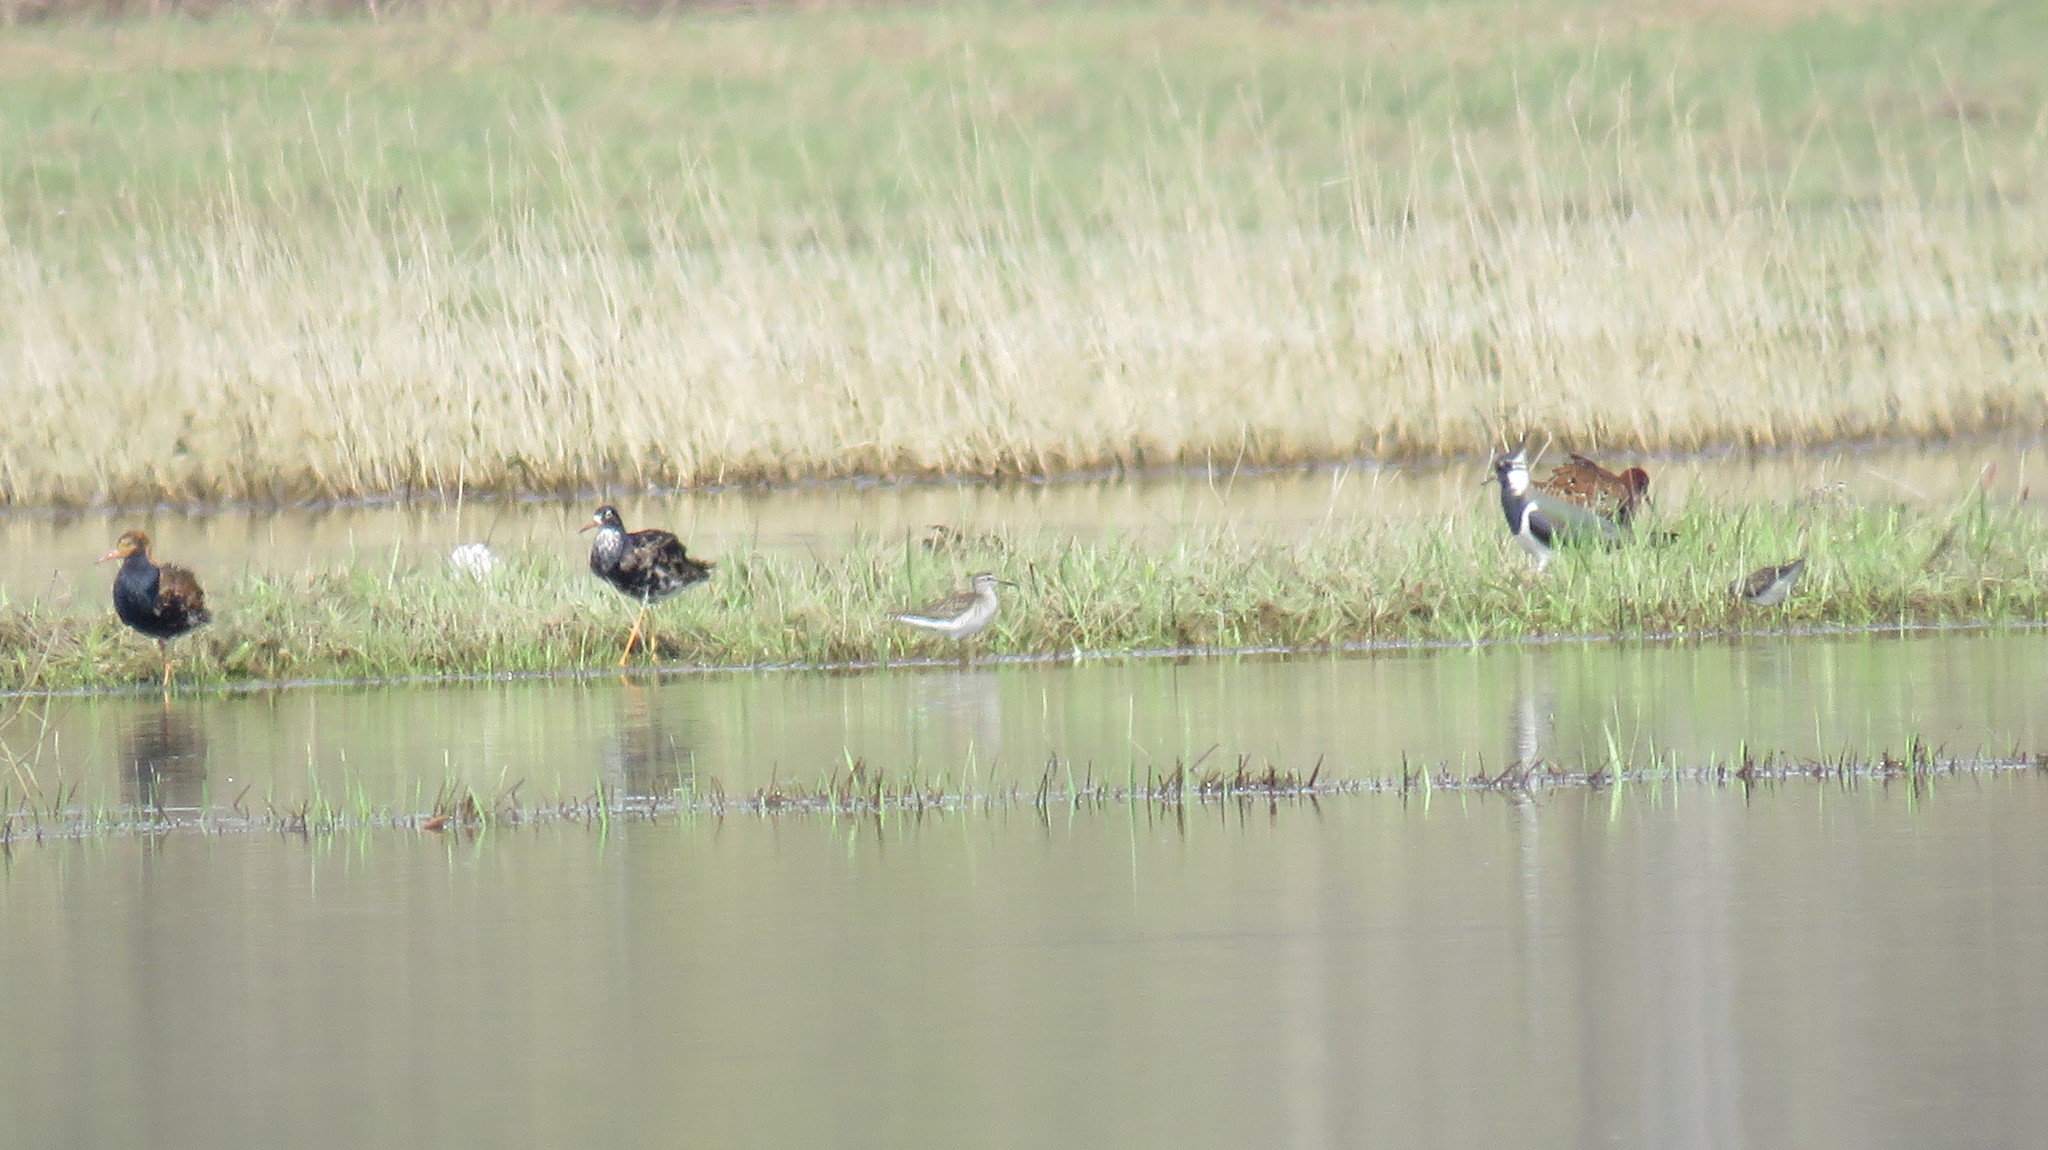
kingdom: Animalia
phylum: Chordata
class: Aves
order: Charadriiformes
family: Scolopacidae
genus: Calidris
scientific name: Calidris pugnax
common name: Ruff
